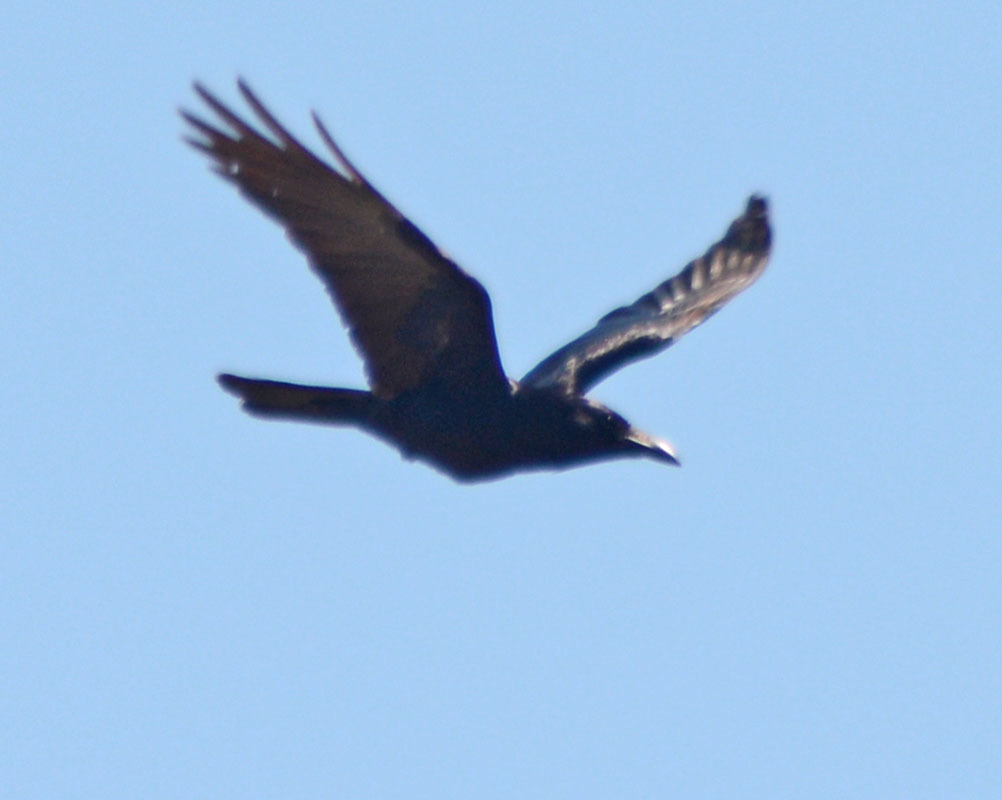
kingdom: Animalia
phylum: Chordata
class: Aves
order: Passeriformes
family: Corvidae
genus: Corvus
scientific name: Corvus sinaloae
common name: Sinaloa crow
